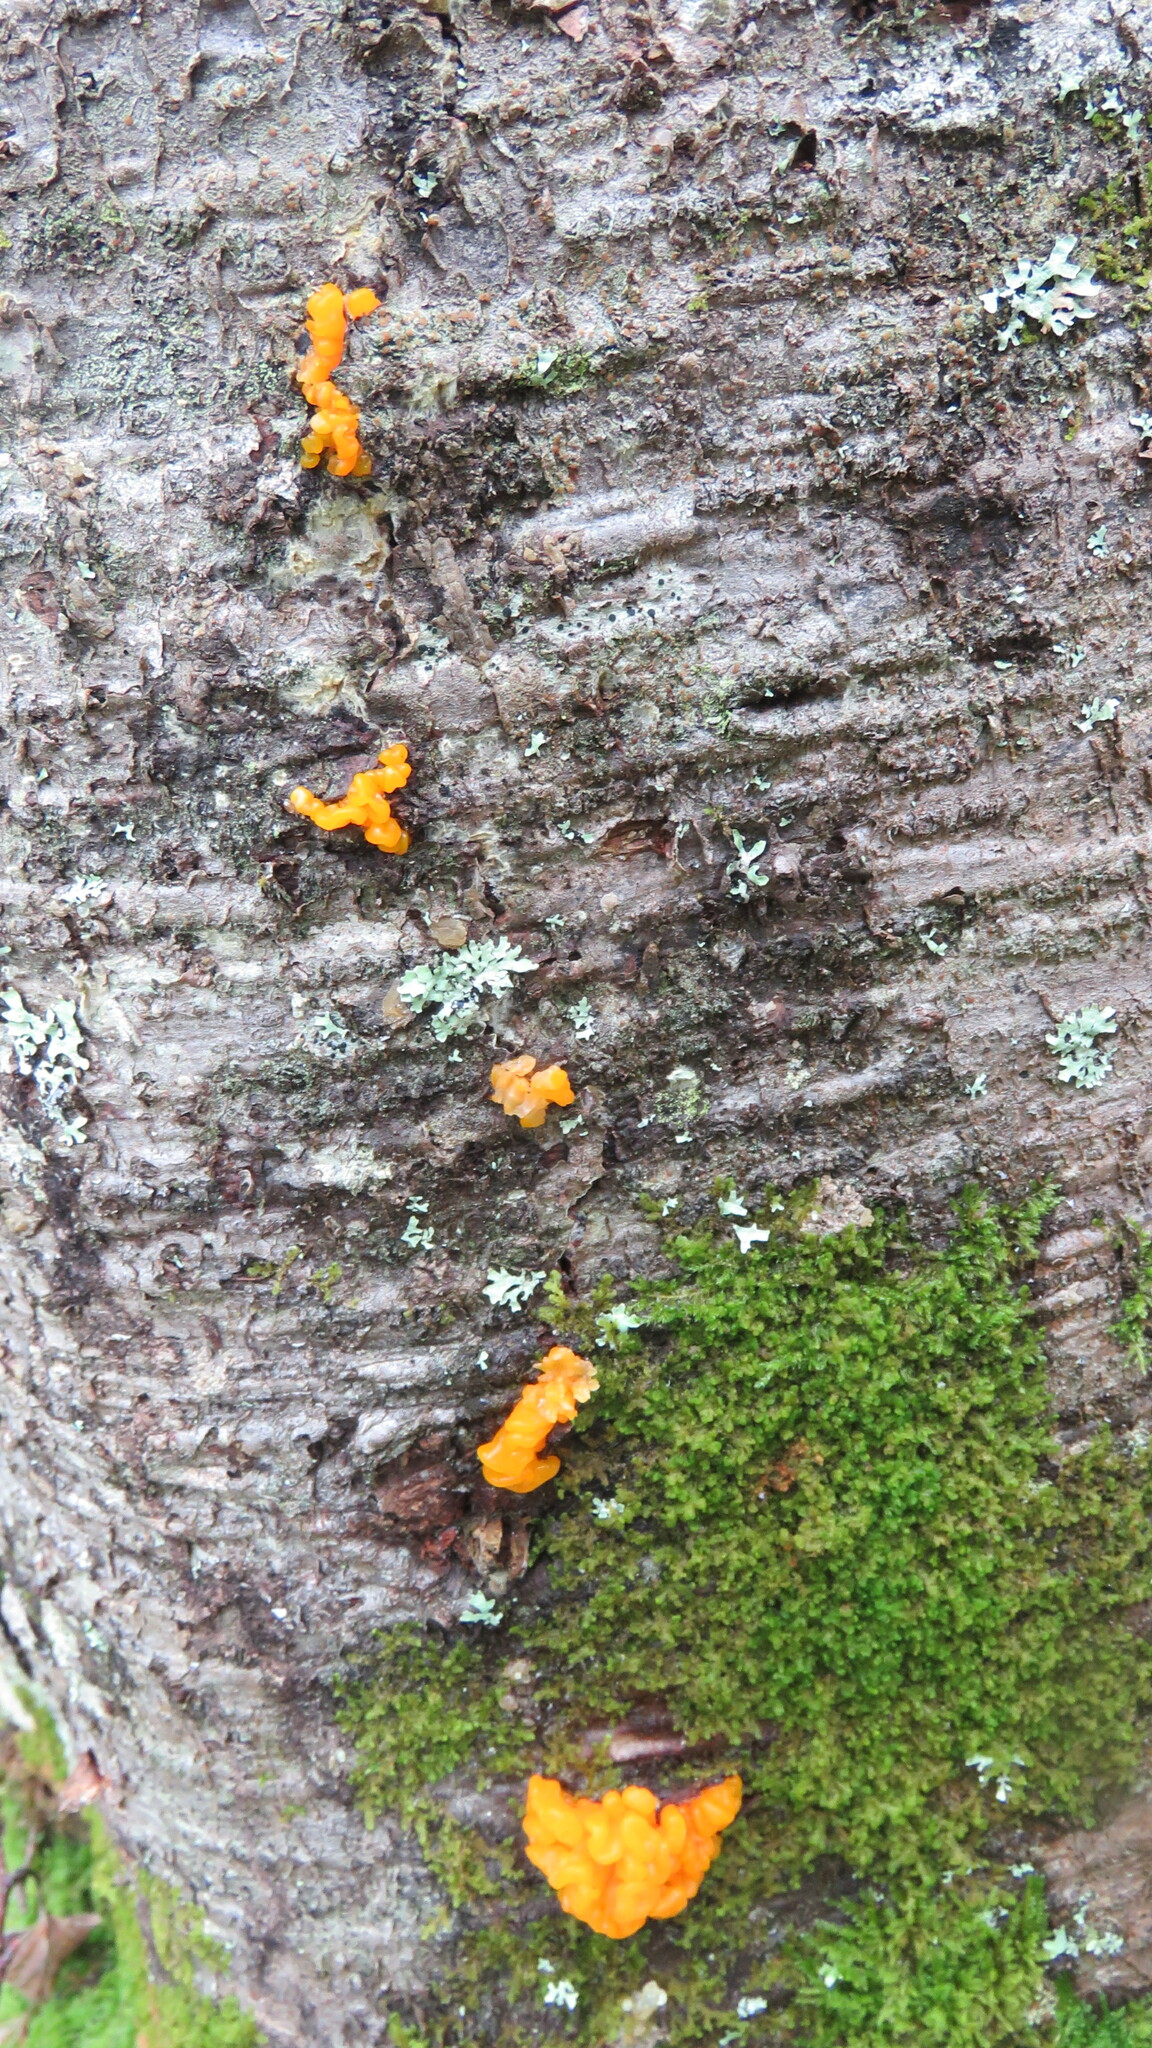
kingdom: Fungi
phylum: Basidiomycota
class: Dacrymycetes
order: Dacrymycetales
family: Dacrymycetaceae
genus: Dacrymyces
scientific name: Dacrymyces chrysospermus
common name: Orange jelly spot
